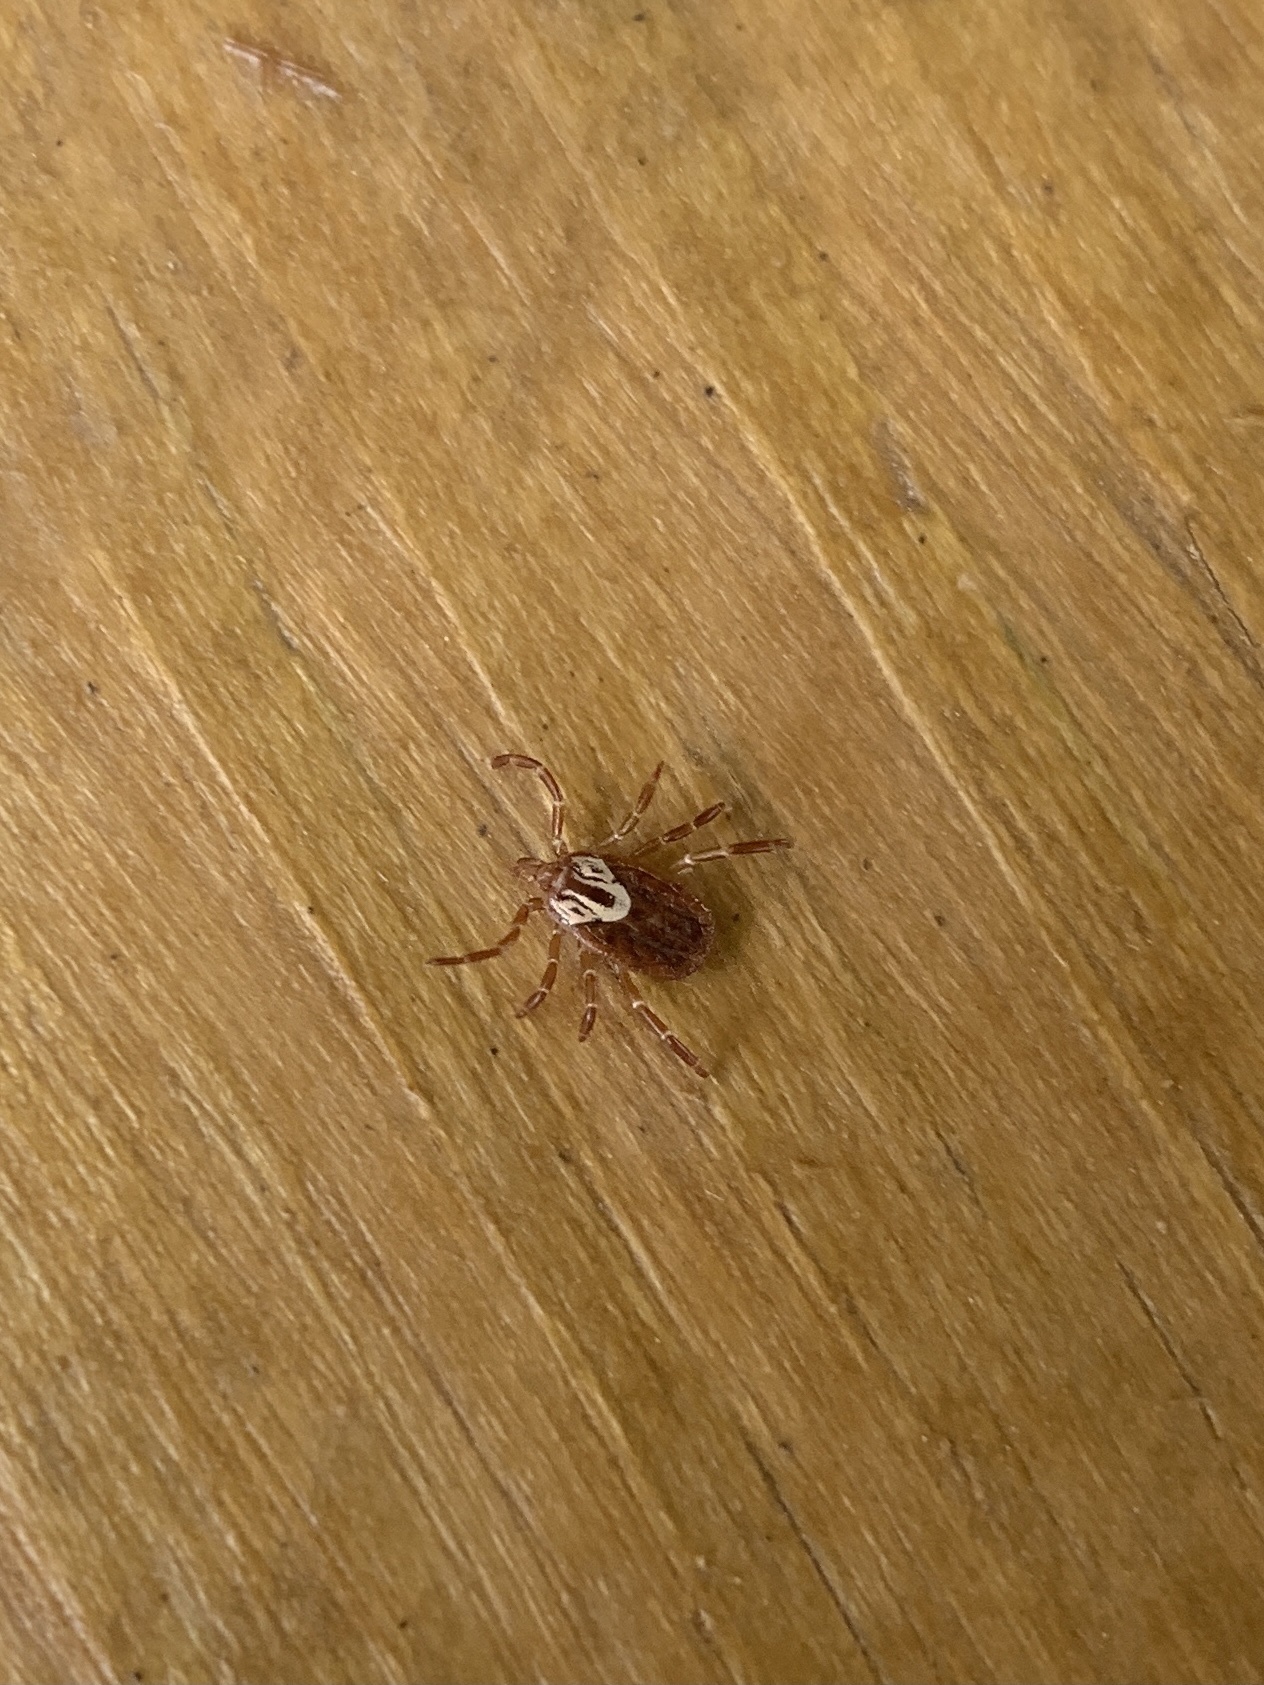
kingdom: Animalia
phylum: Arthropoda
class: Arachnida
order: Ixodida
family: Ixodidae
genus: Amblyomma
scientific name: Amblyomma maculatum
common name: Gulf coast tick
